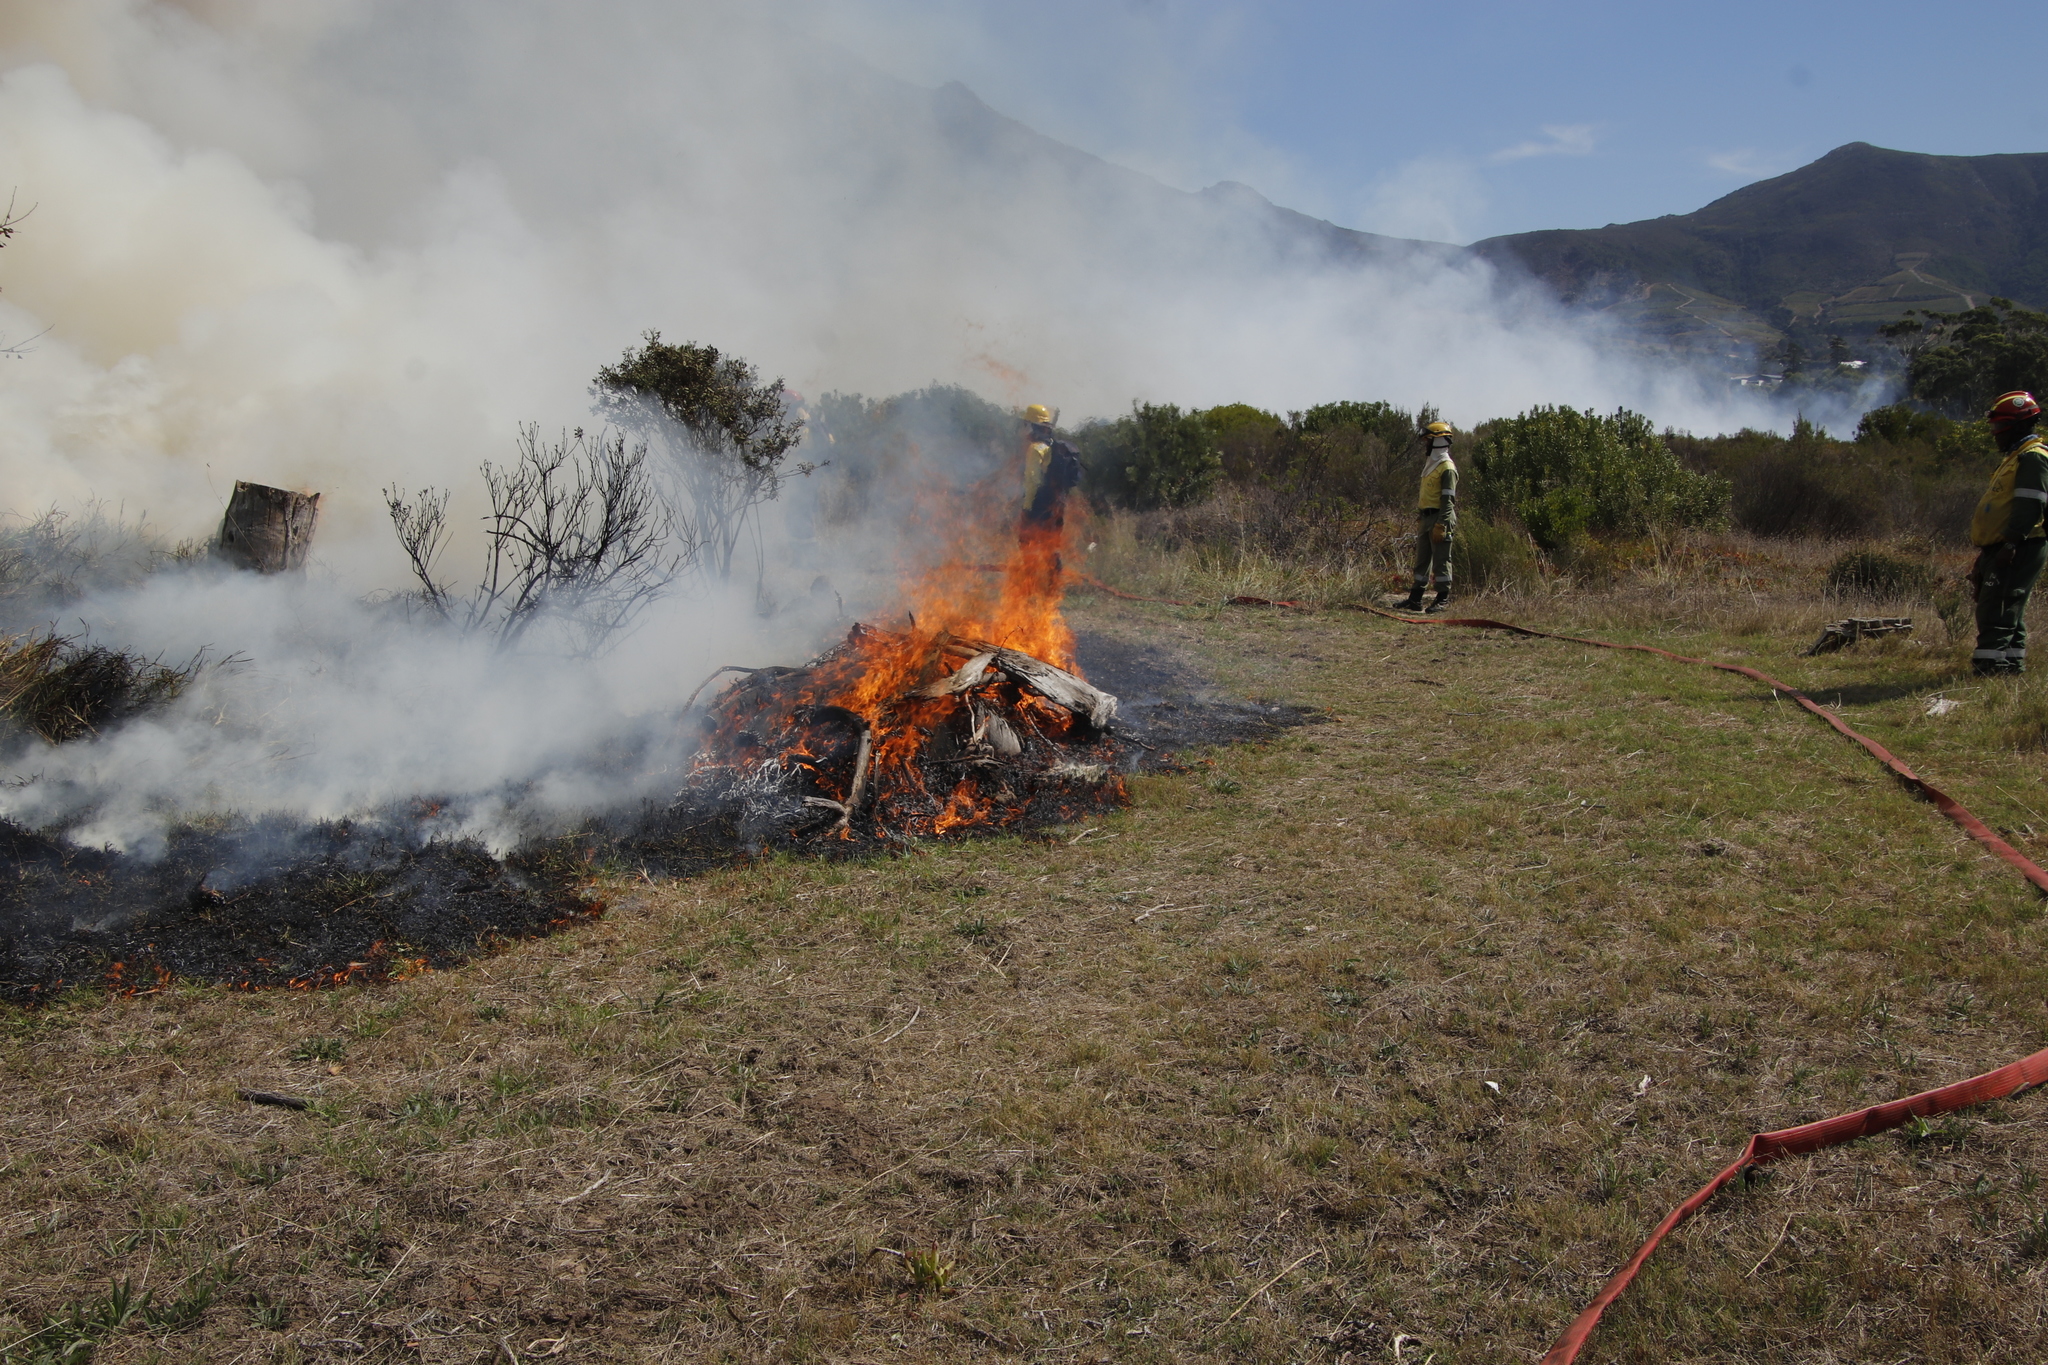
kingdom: Plantae
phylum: Tracheophyta
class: Liliopsida
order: Poales
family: Poaceae
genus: Cenchrus
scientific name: Cenchrus clandestinus
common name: Kikuyugrass
